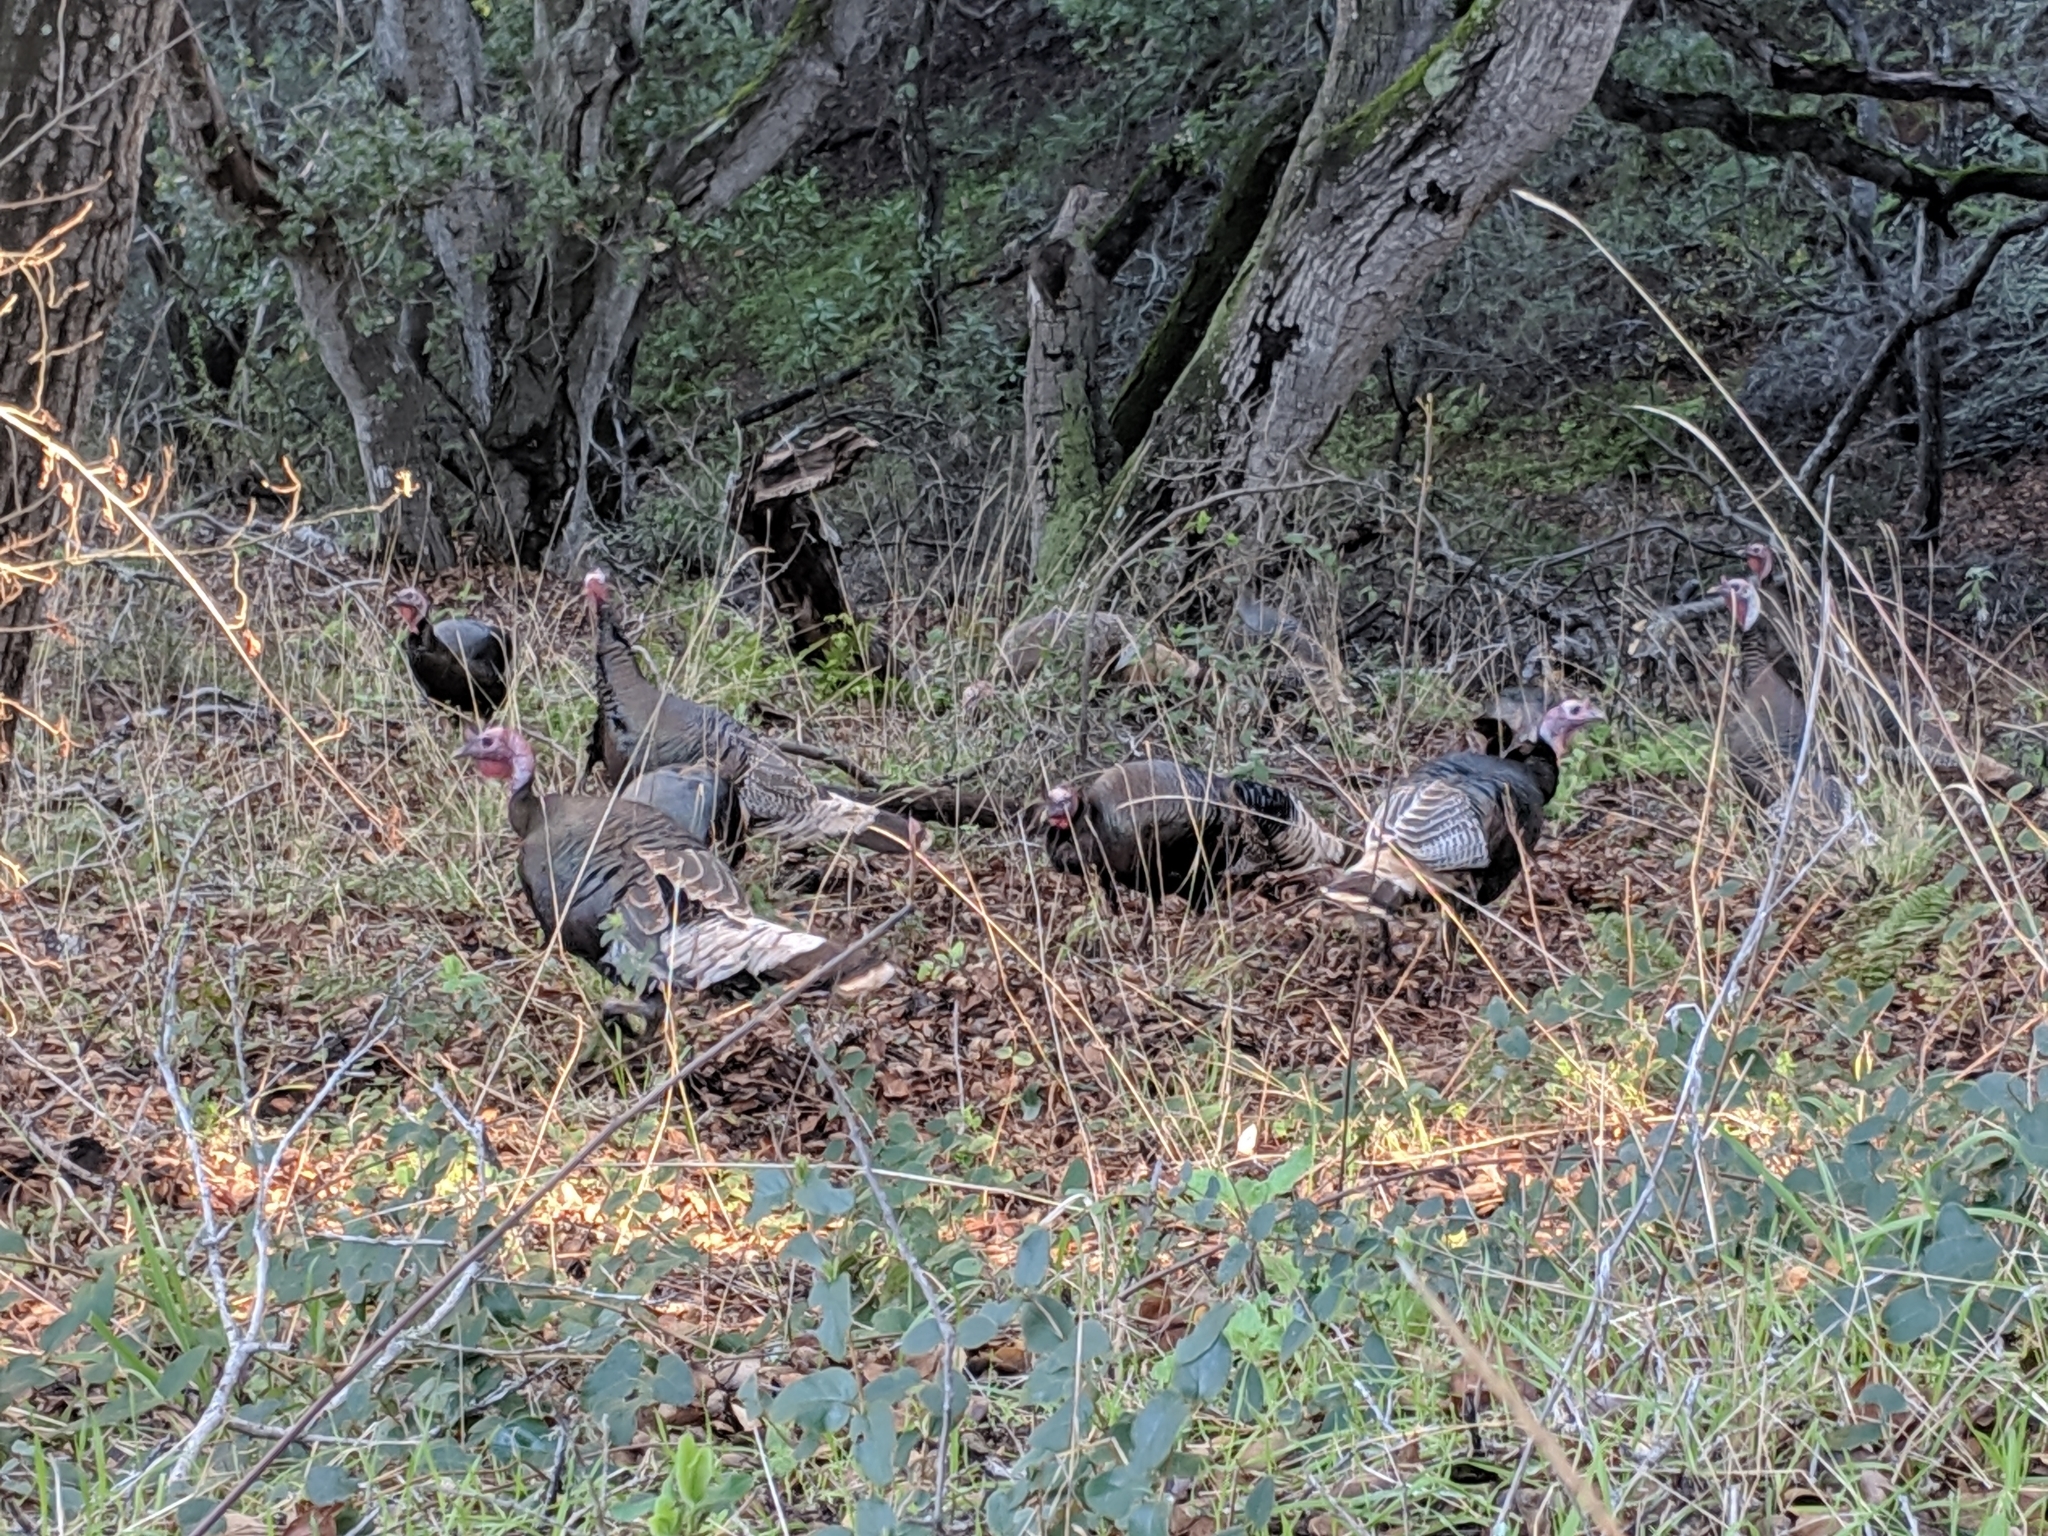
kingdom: Animalia
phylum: Chordata
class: Aves
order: Galliformes
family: Phasianidae
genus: Meleagris
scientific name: Meleagris gallopavo
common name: Wild turkey
